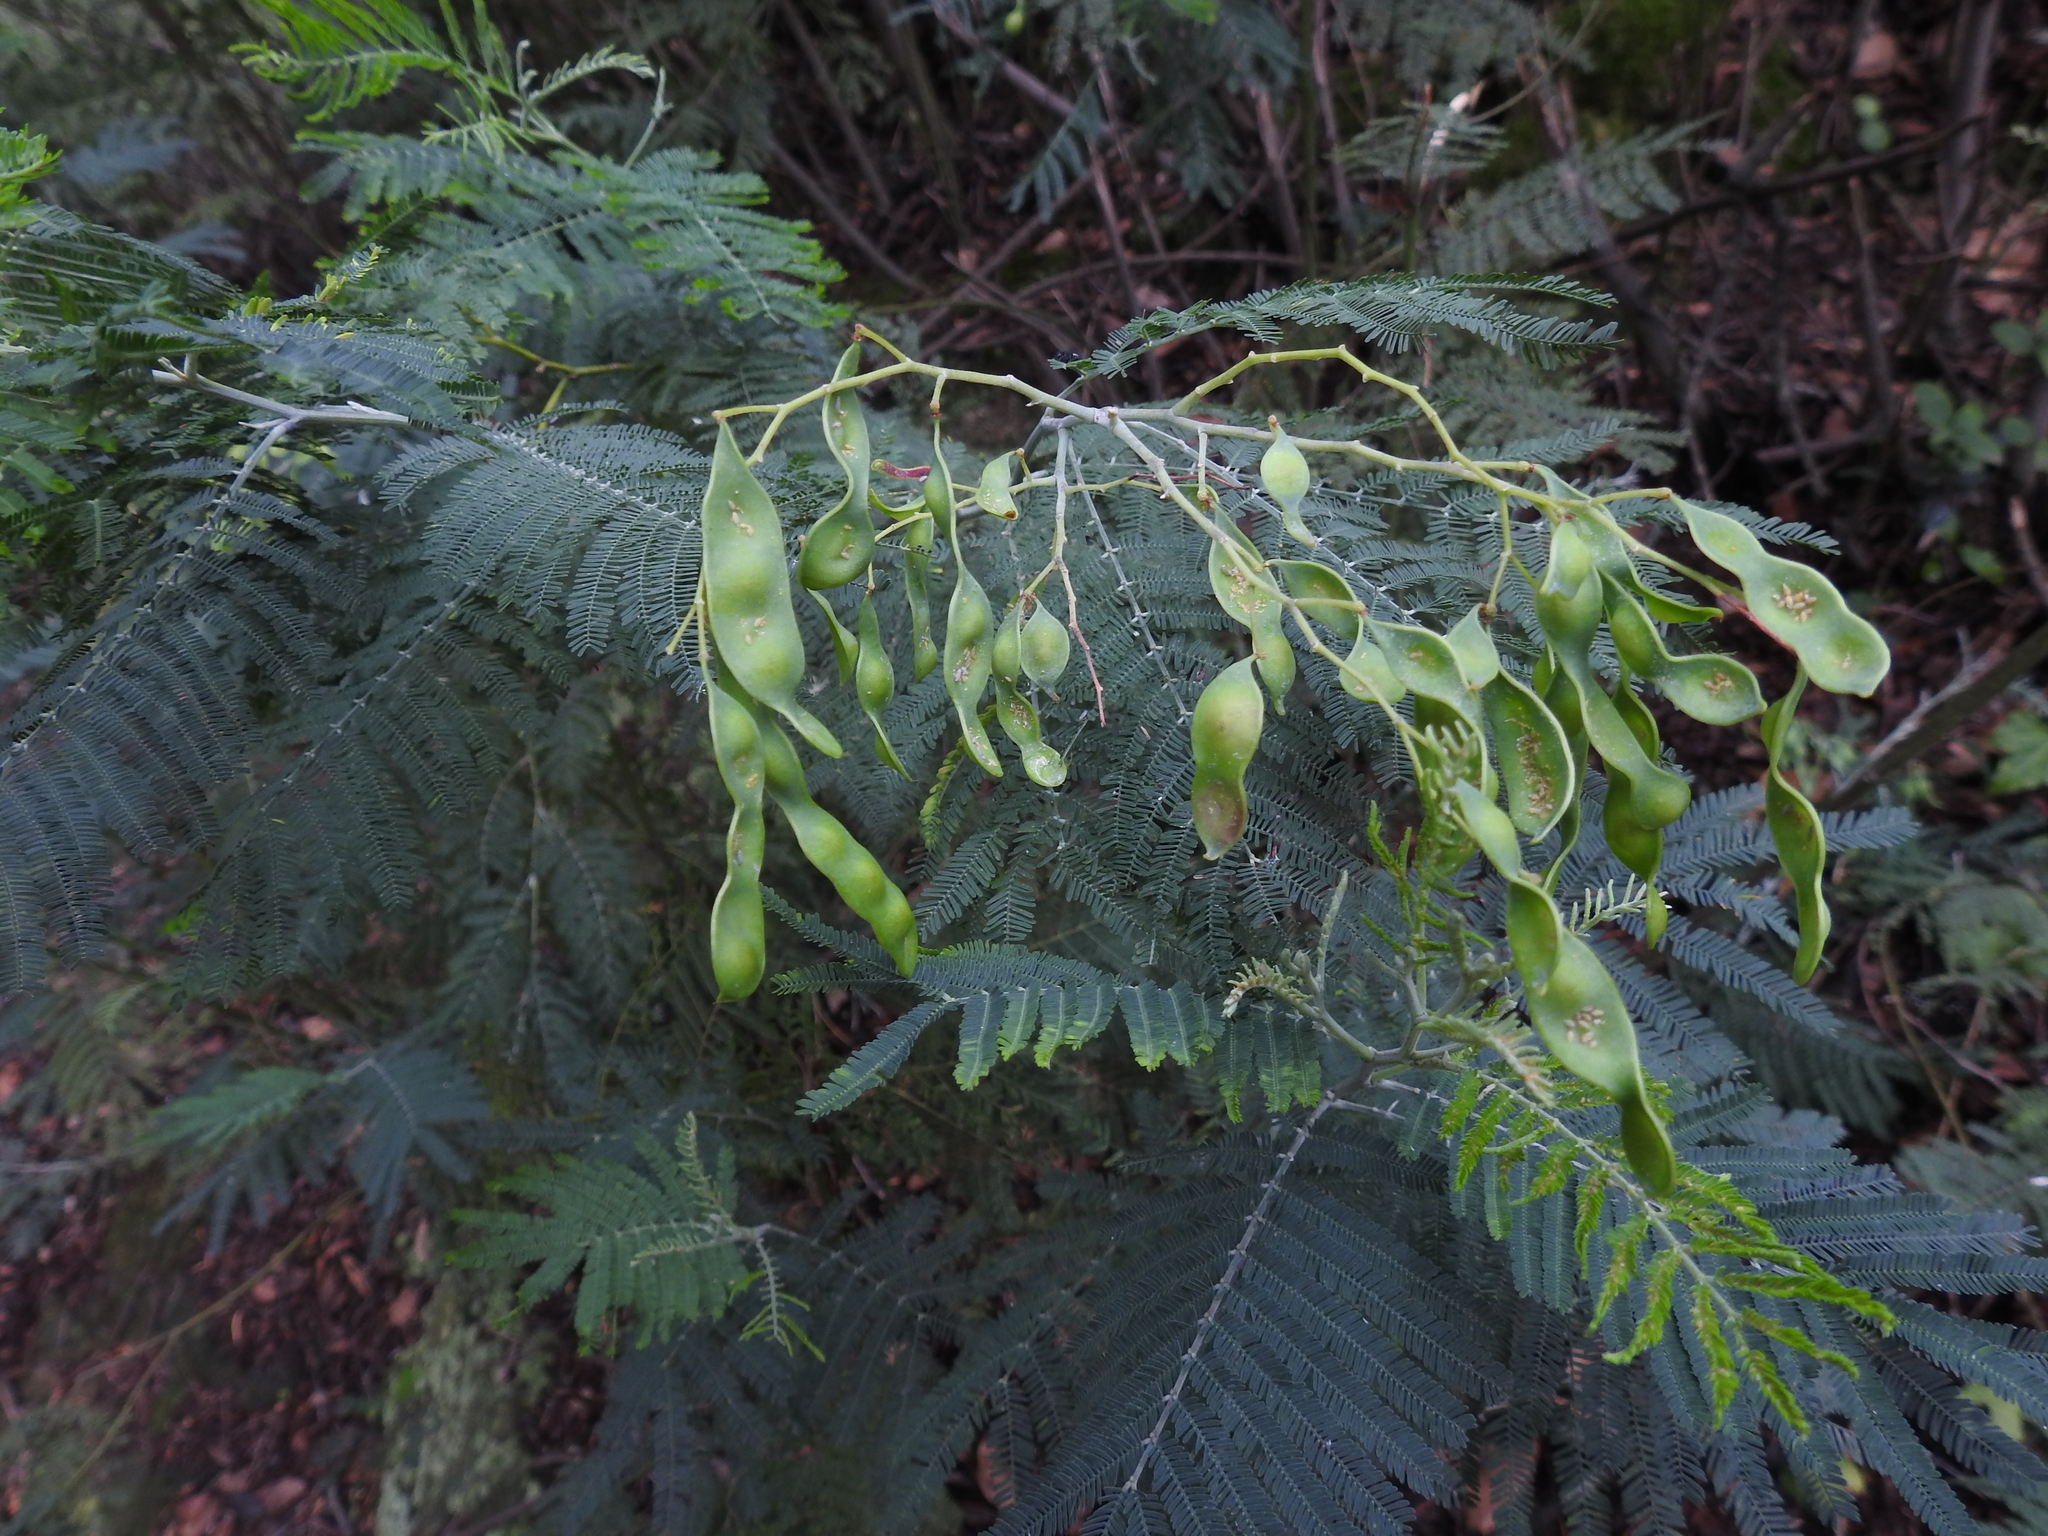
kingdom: Plantae
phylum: Tracheophyta
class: Magnoliopsida
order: Fabales
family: Fabaceae
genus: Acacia
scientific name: Acacia dealbata
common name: Silver wattle
